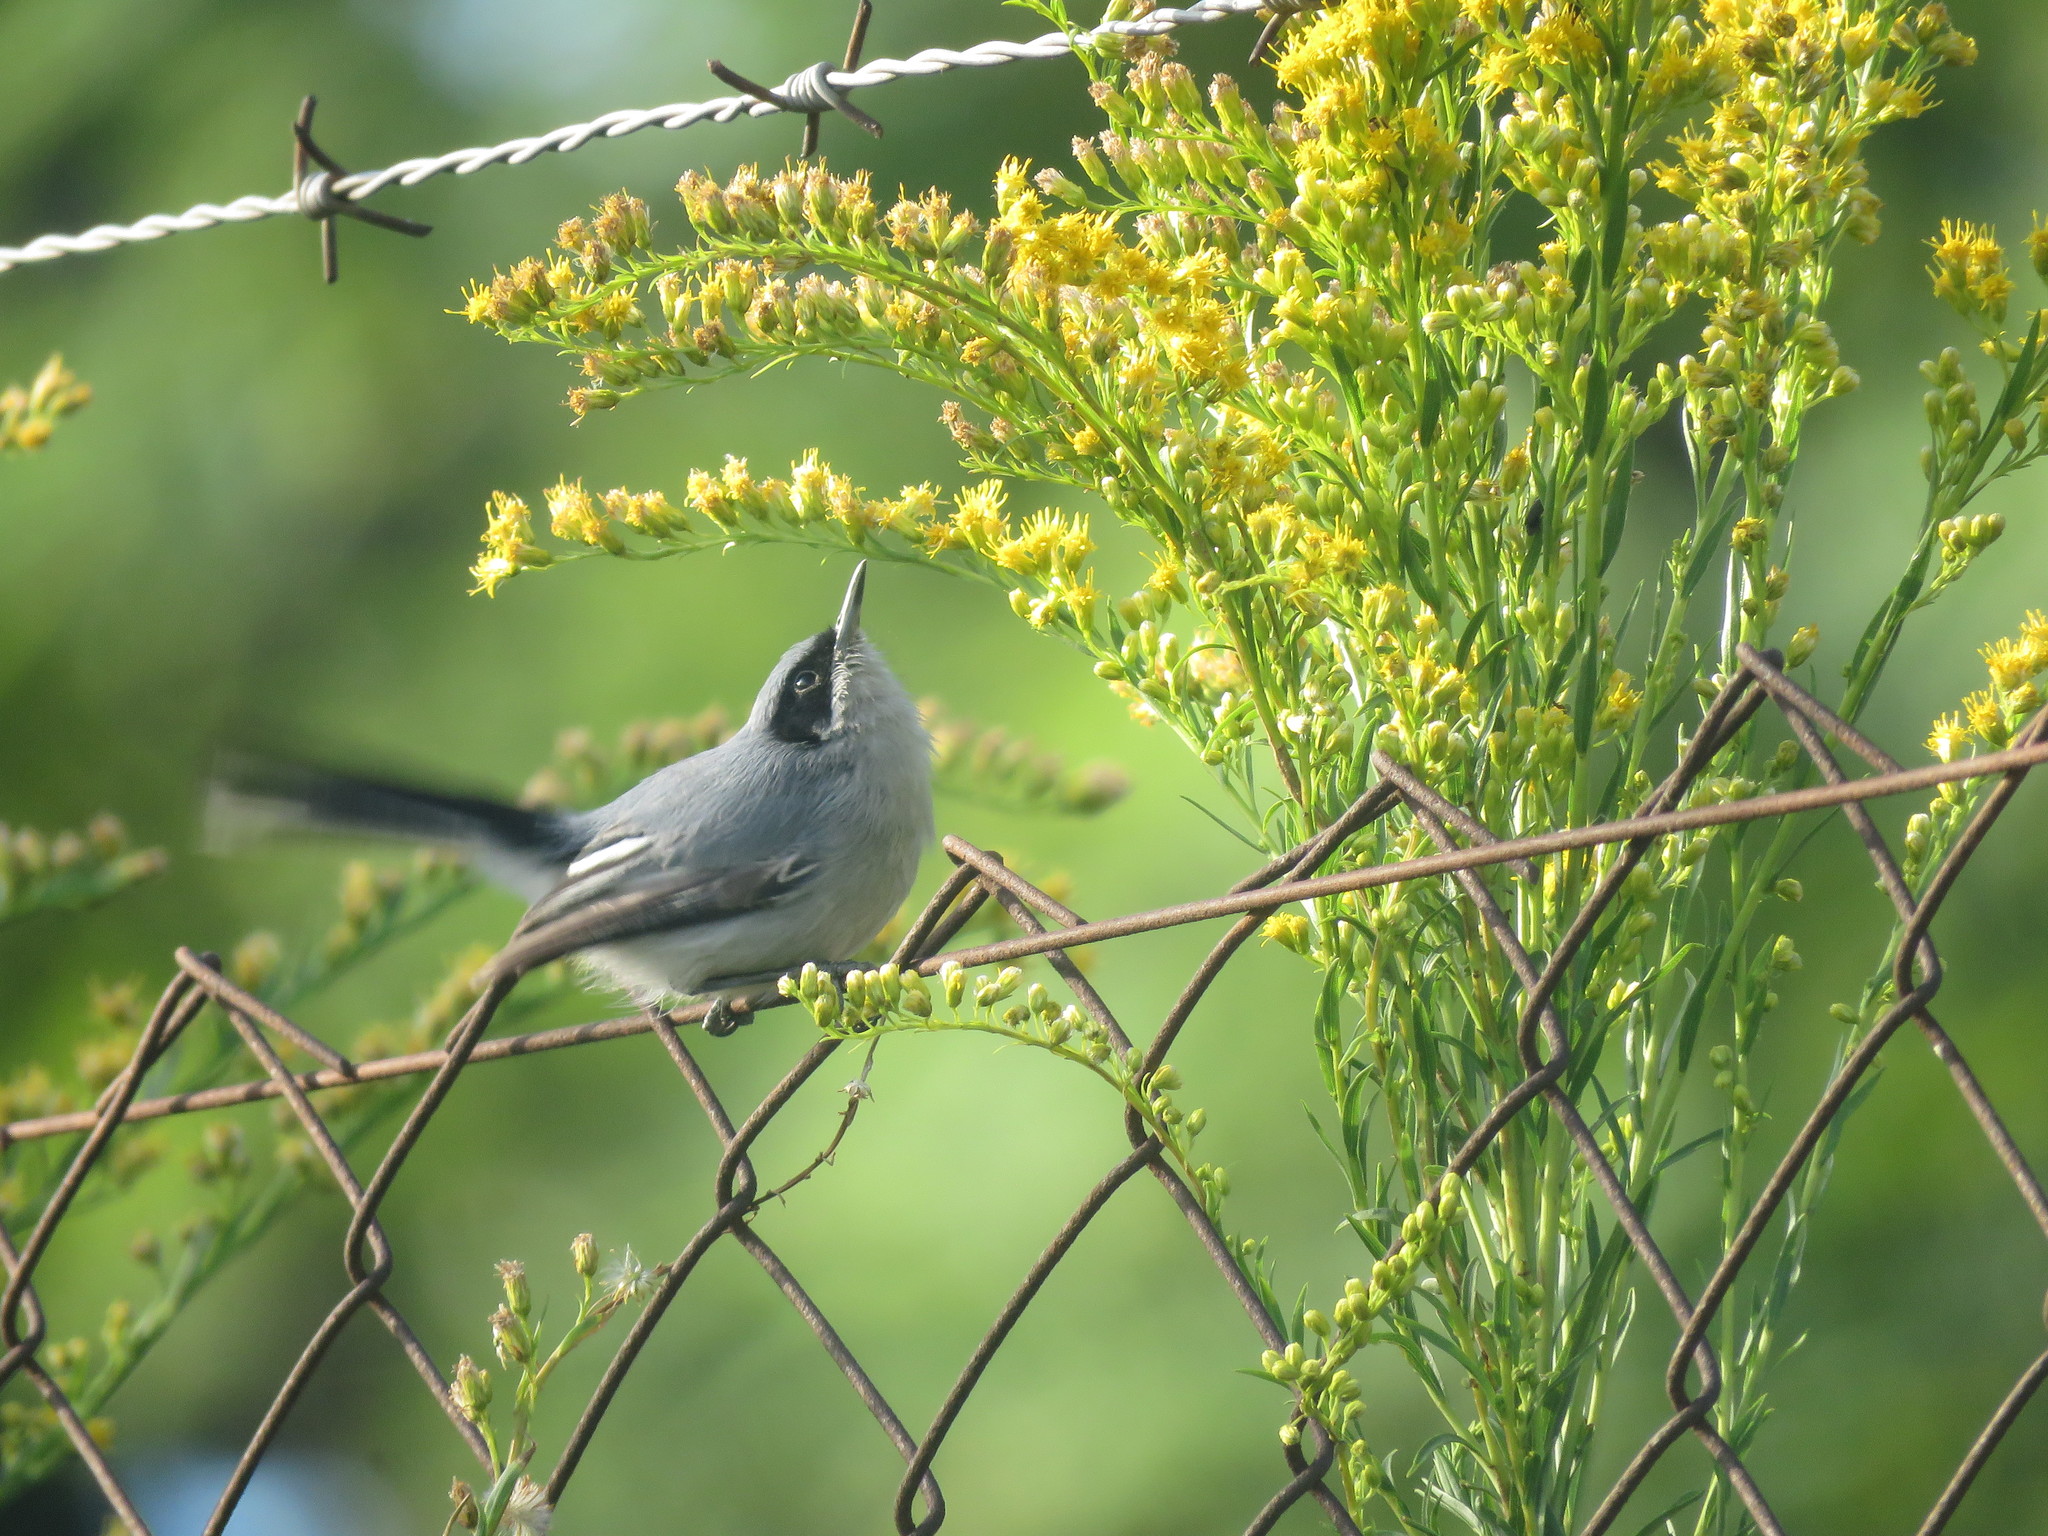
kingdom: Animalia
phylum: Chordata
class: Aves
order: Passeriformes
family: Polioptilidae
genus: Polioptila
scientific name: Polioptila dumicola
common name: Masked gnatcatcher
